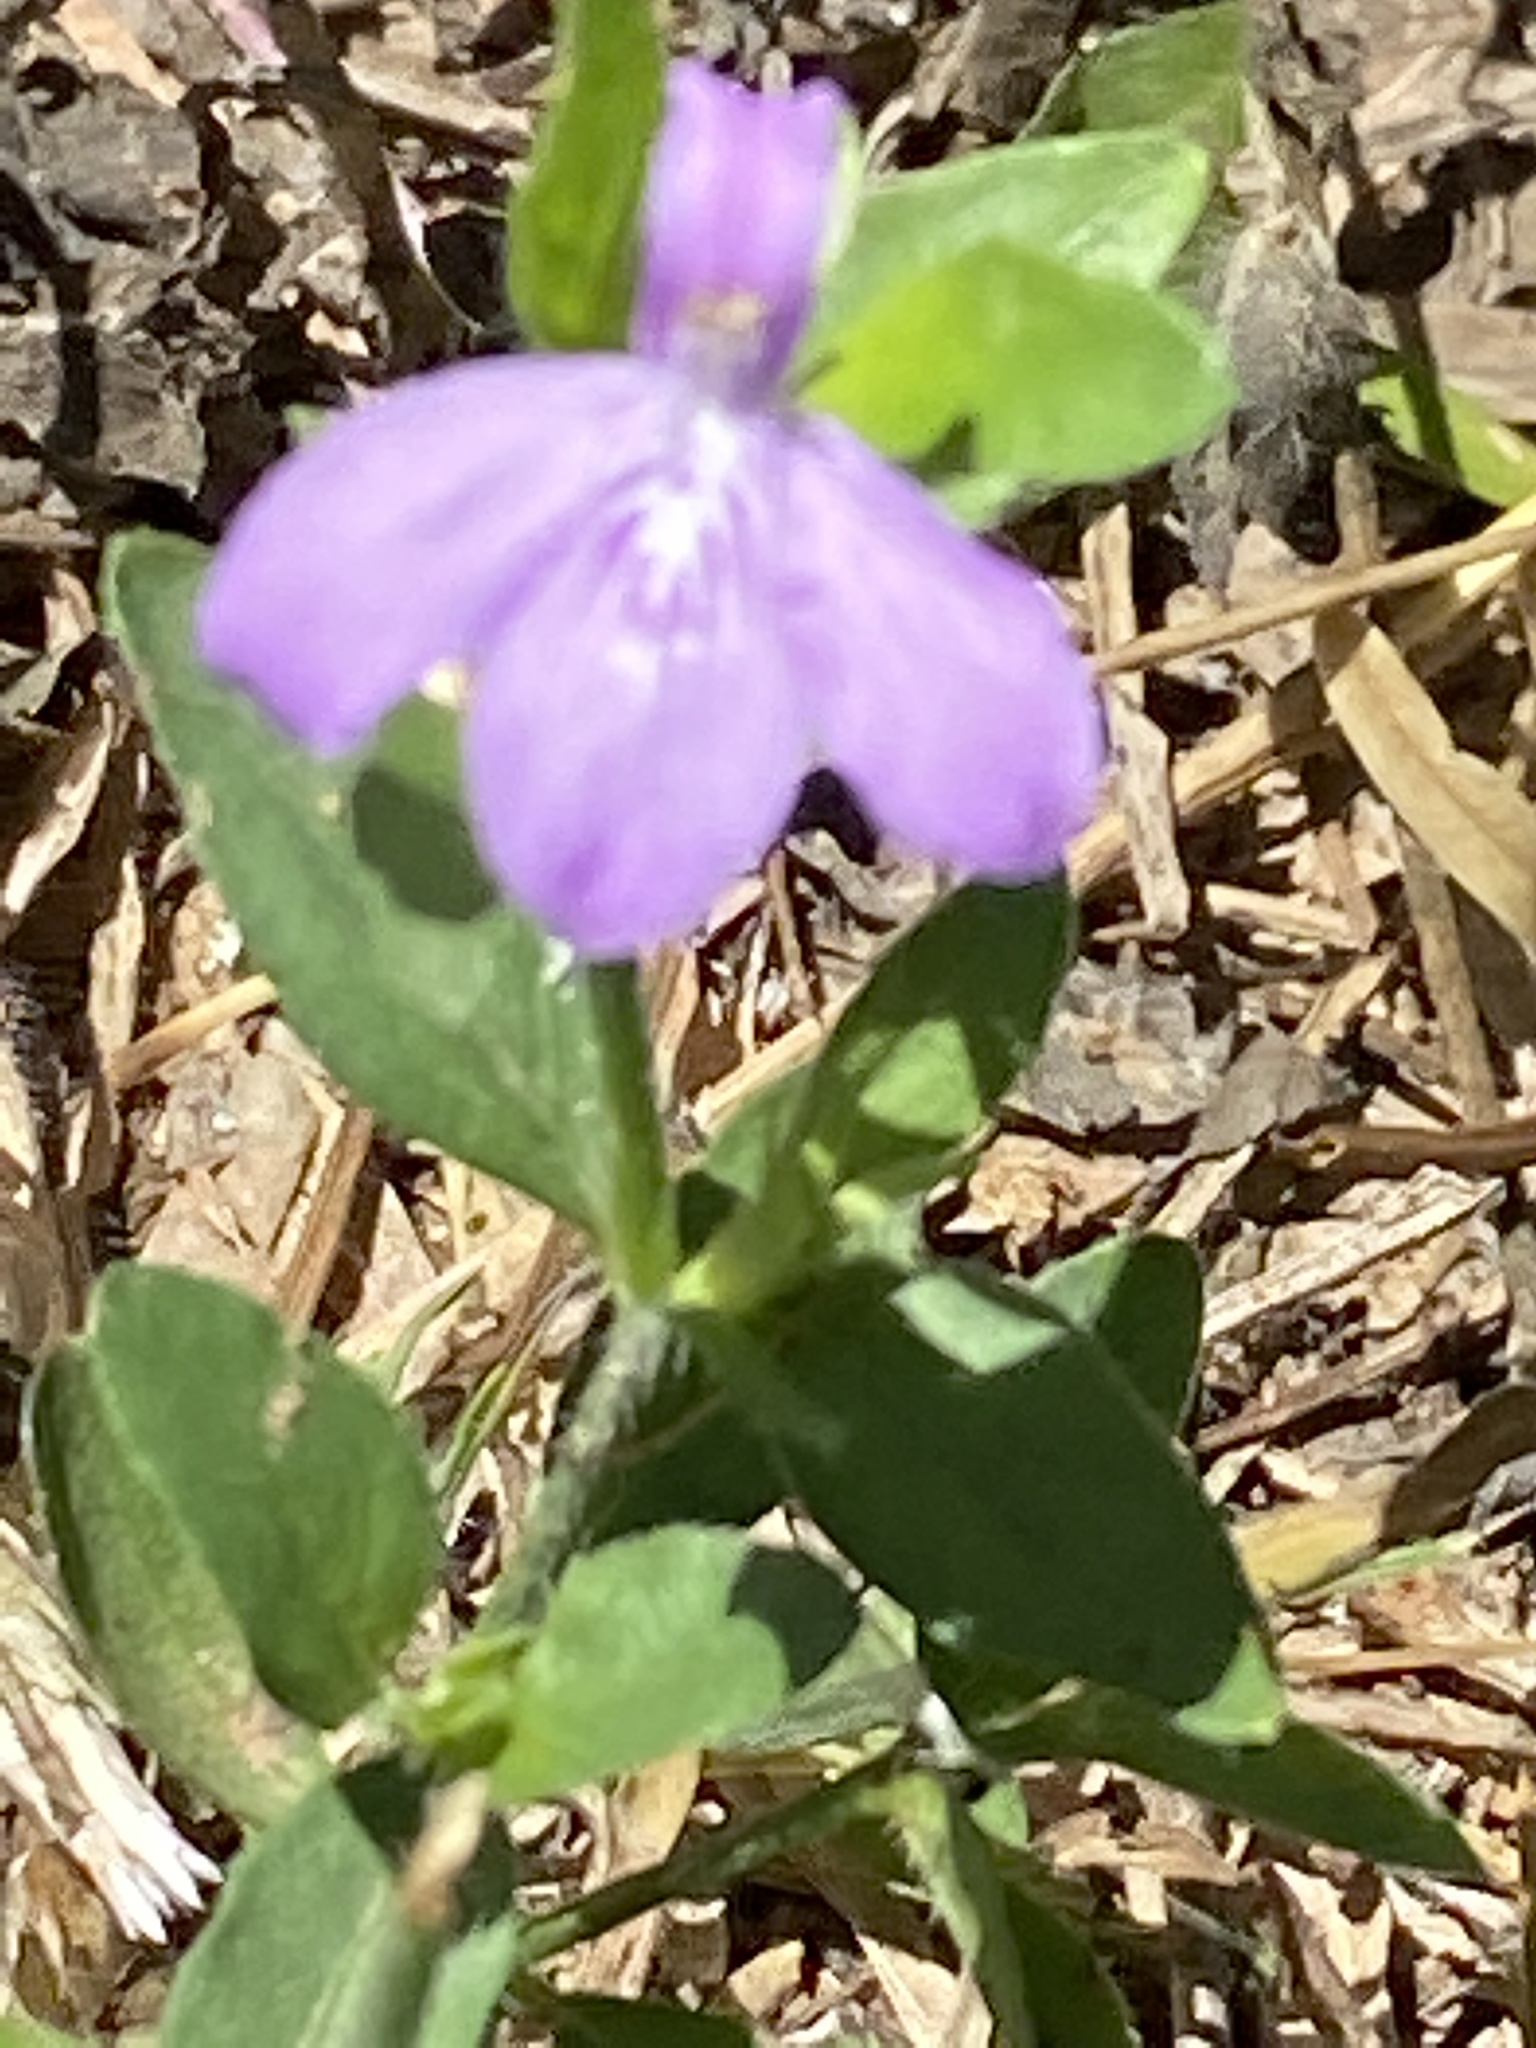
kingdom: Plantae
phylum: Tracheophyta
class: Magnoliopsida
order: Lamiales
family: Acanthaceae
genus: Justicia
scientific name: Justicia pilosella
